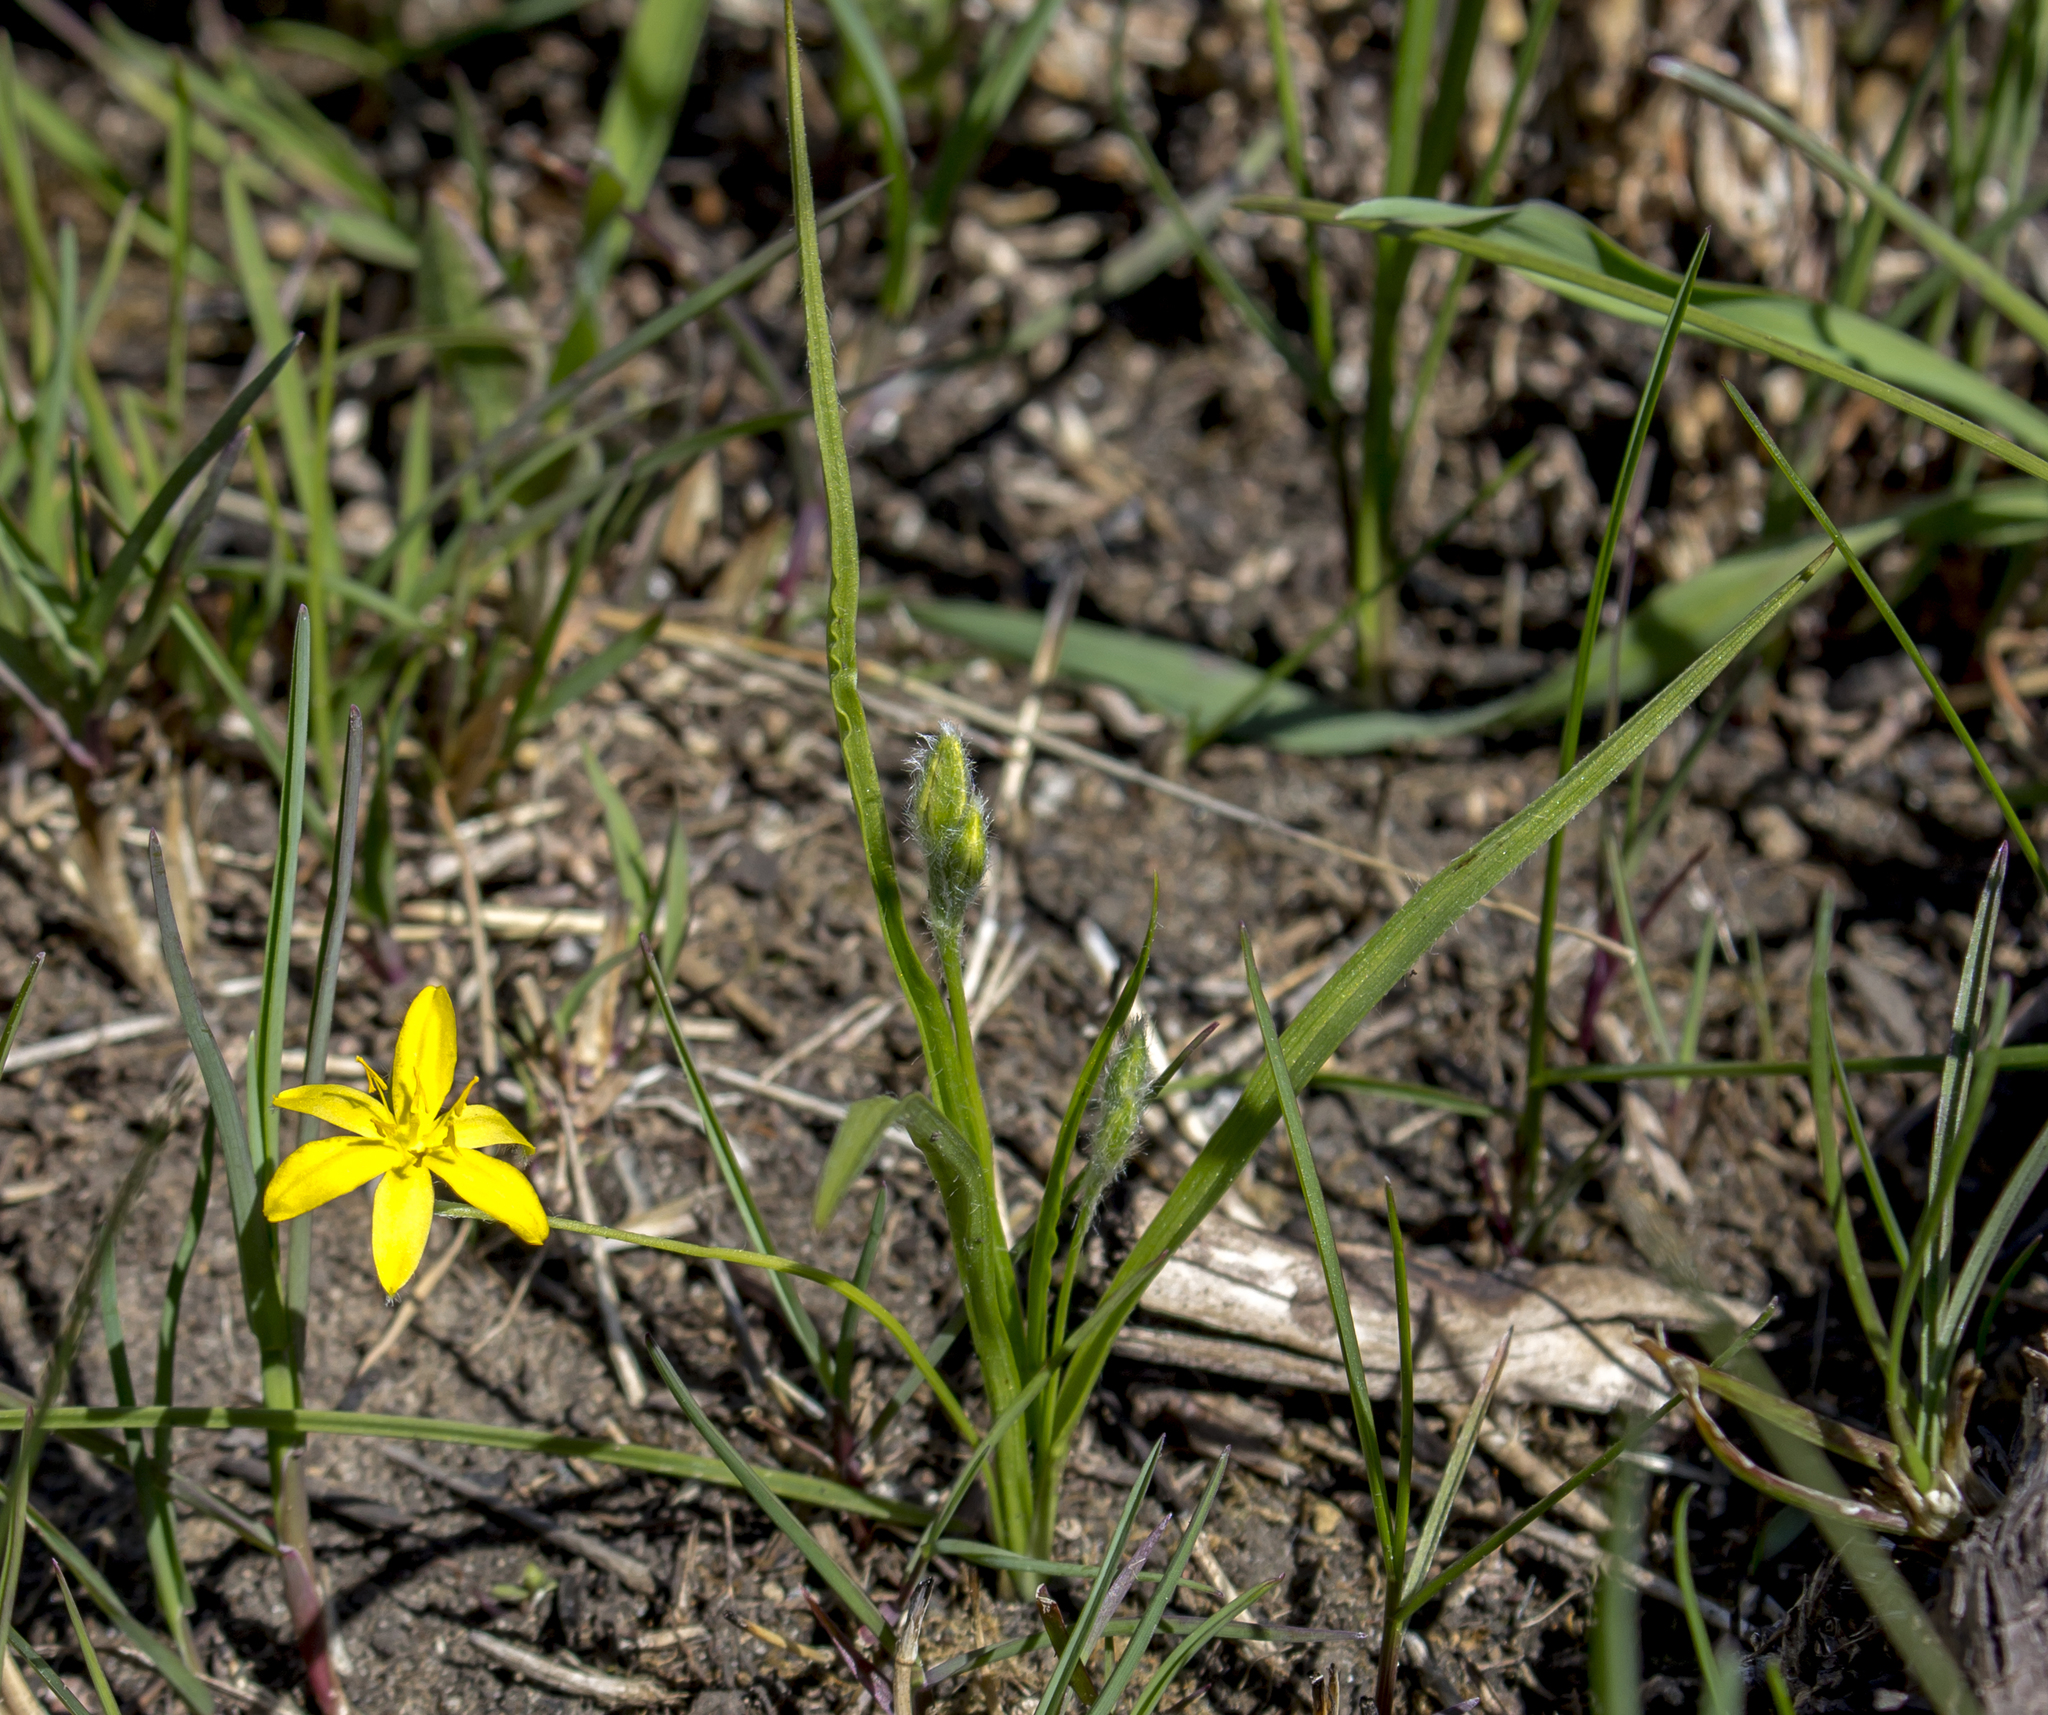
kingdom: Plantae
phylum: Tracheophyta
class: Liliopsida
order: Asparagales
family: Hypoxidaceae
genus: Hypoxis
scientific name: Hypoxis hirsuta
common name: Common goldstar
